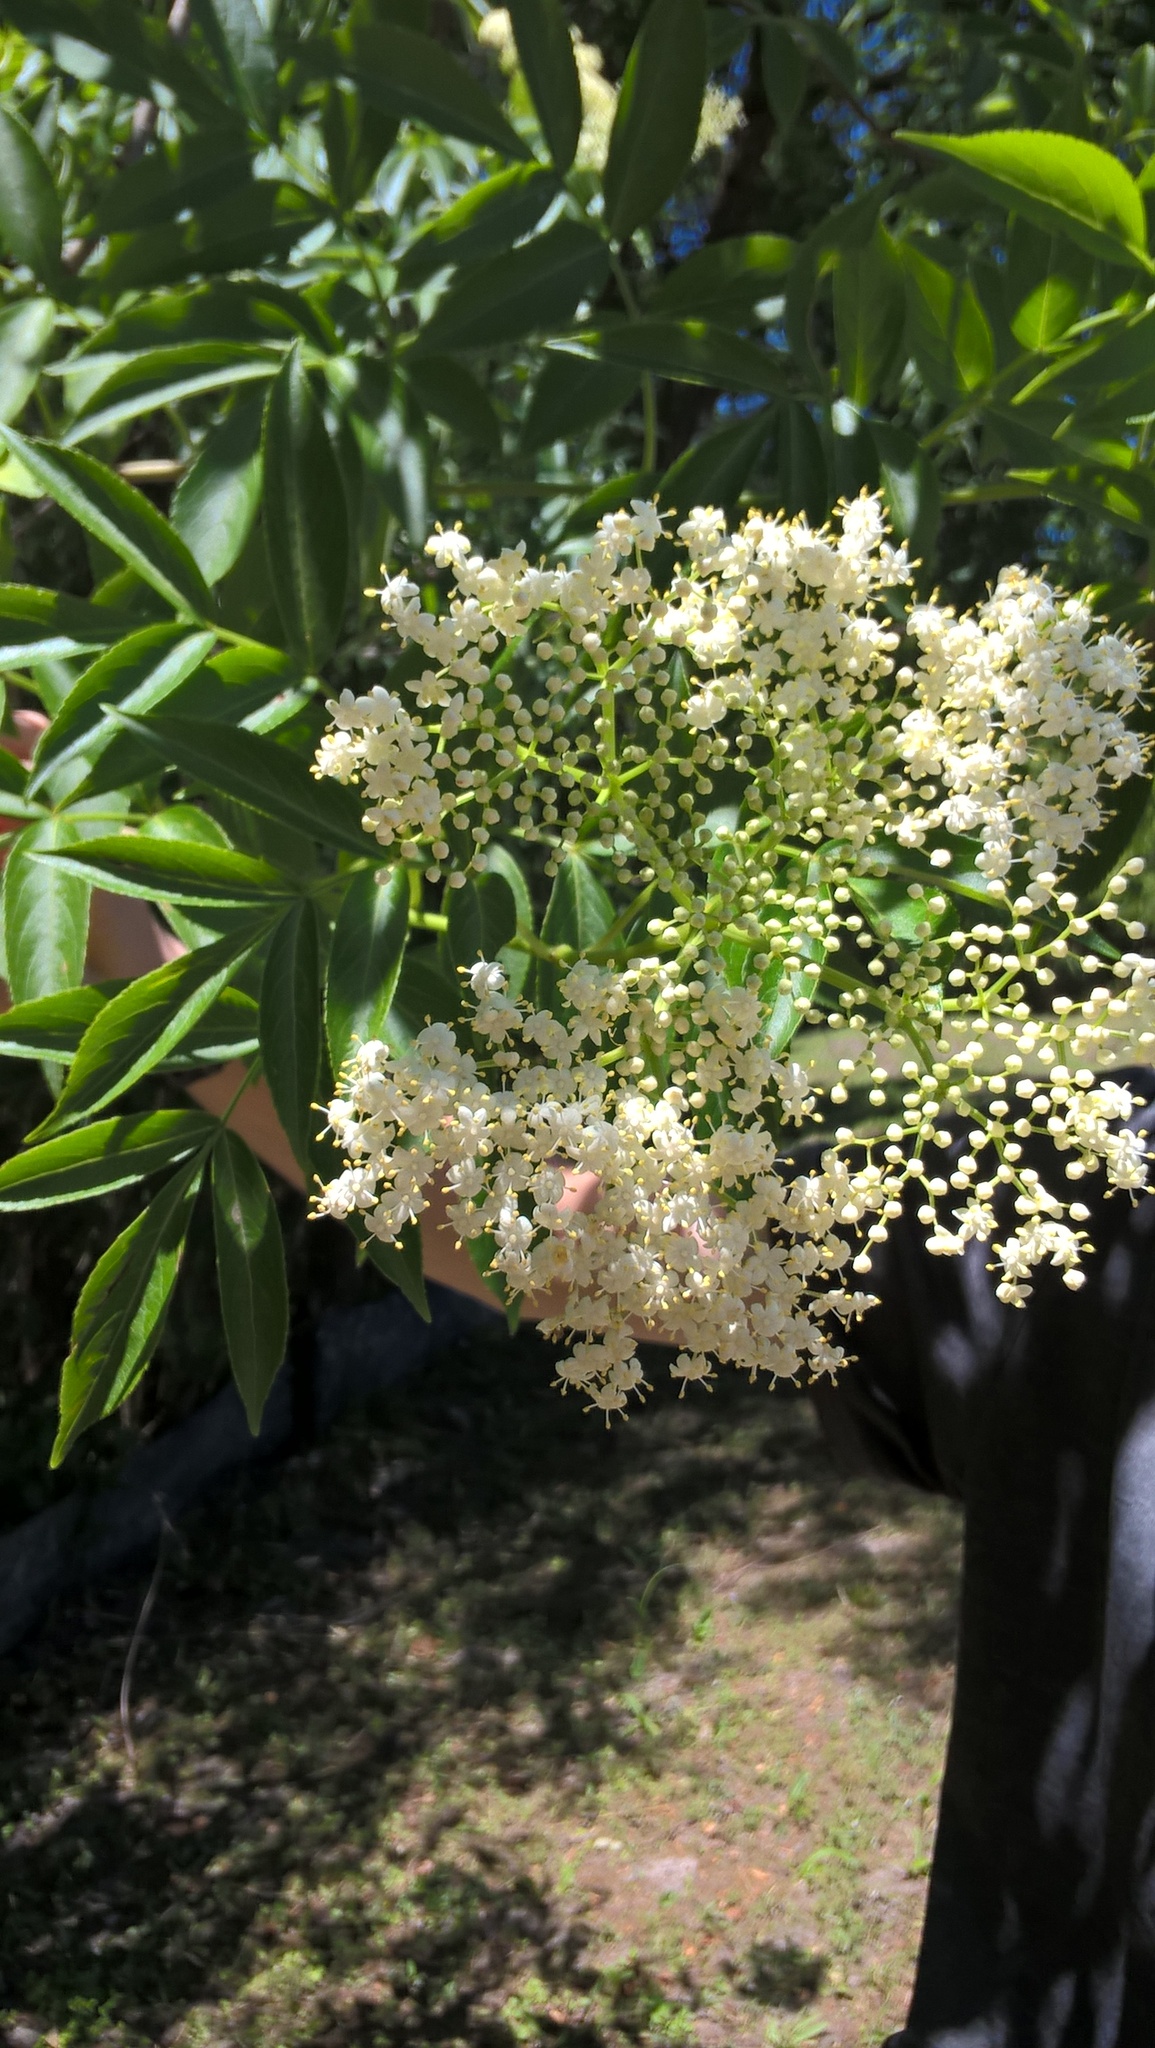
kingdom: Plantae
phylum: Tracheophyta
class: Magnoliopsida
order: Dipsacales
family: Viburnaceae
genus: Sambucus
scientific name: Sambucus canadensis
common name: American elder
